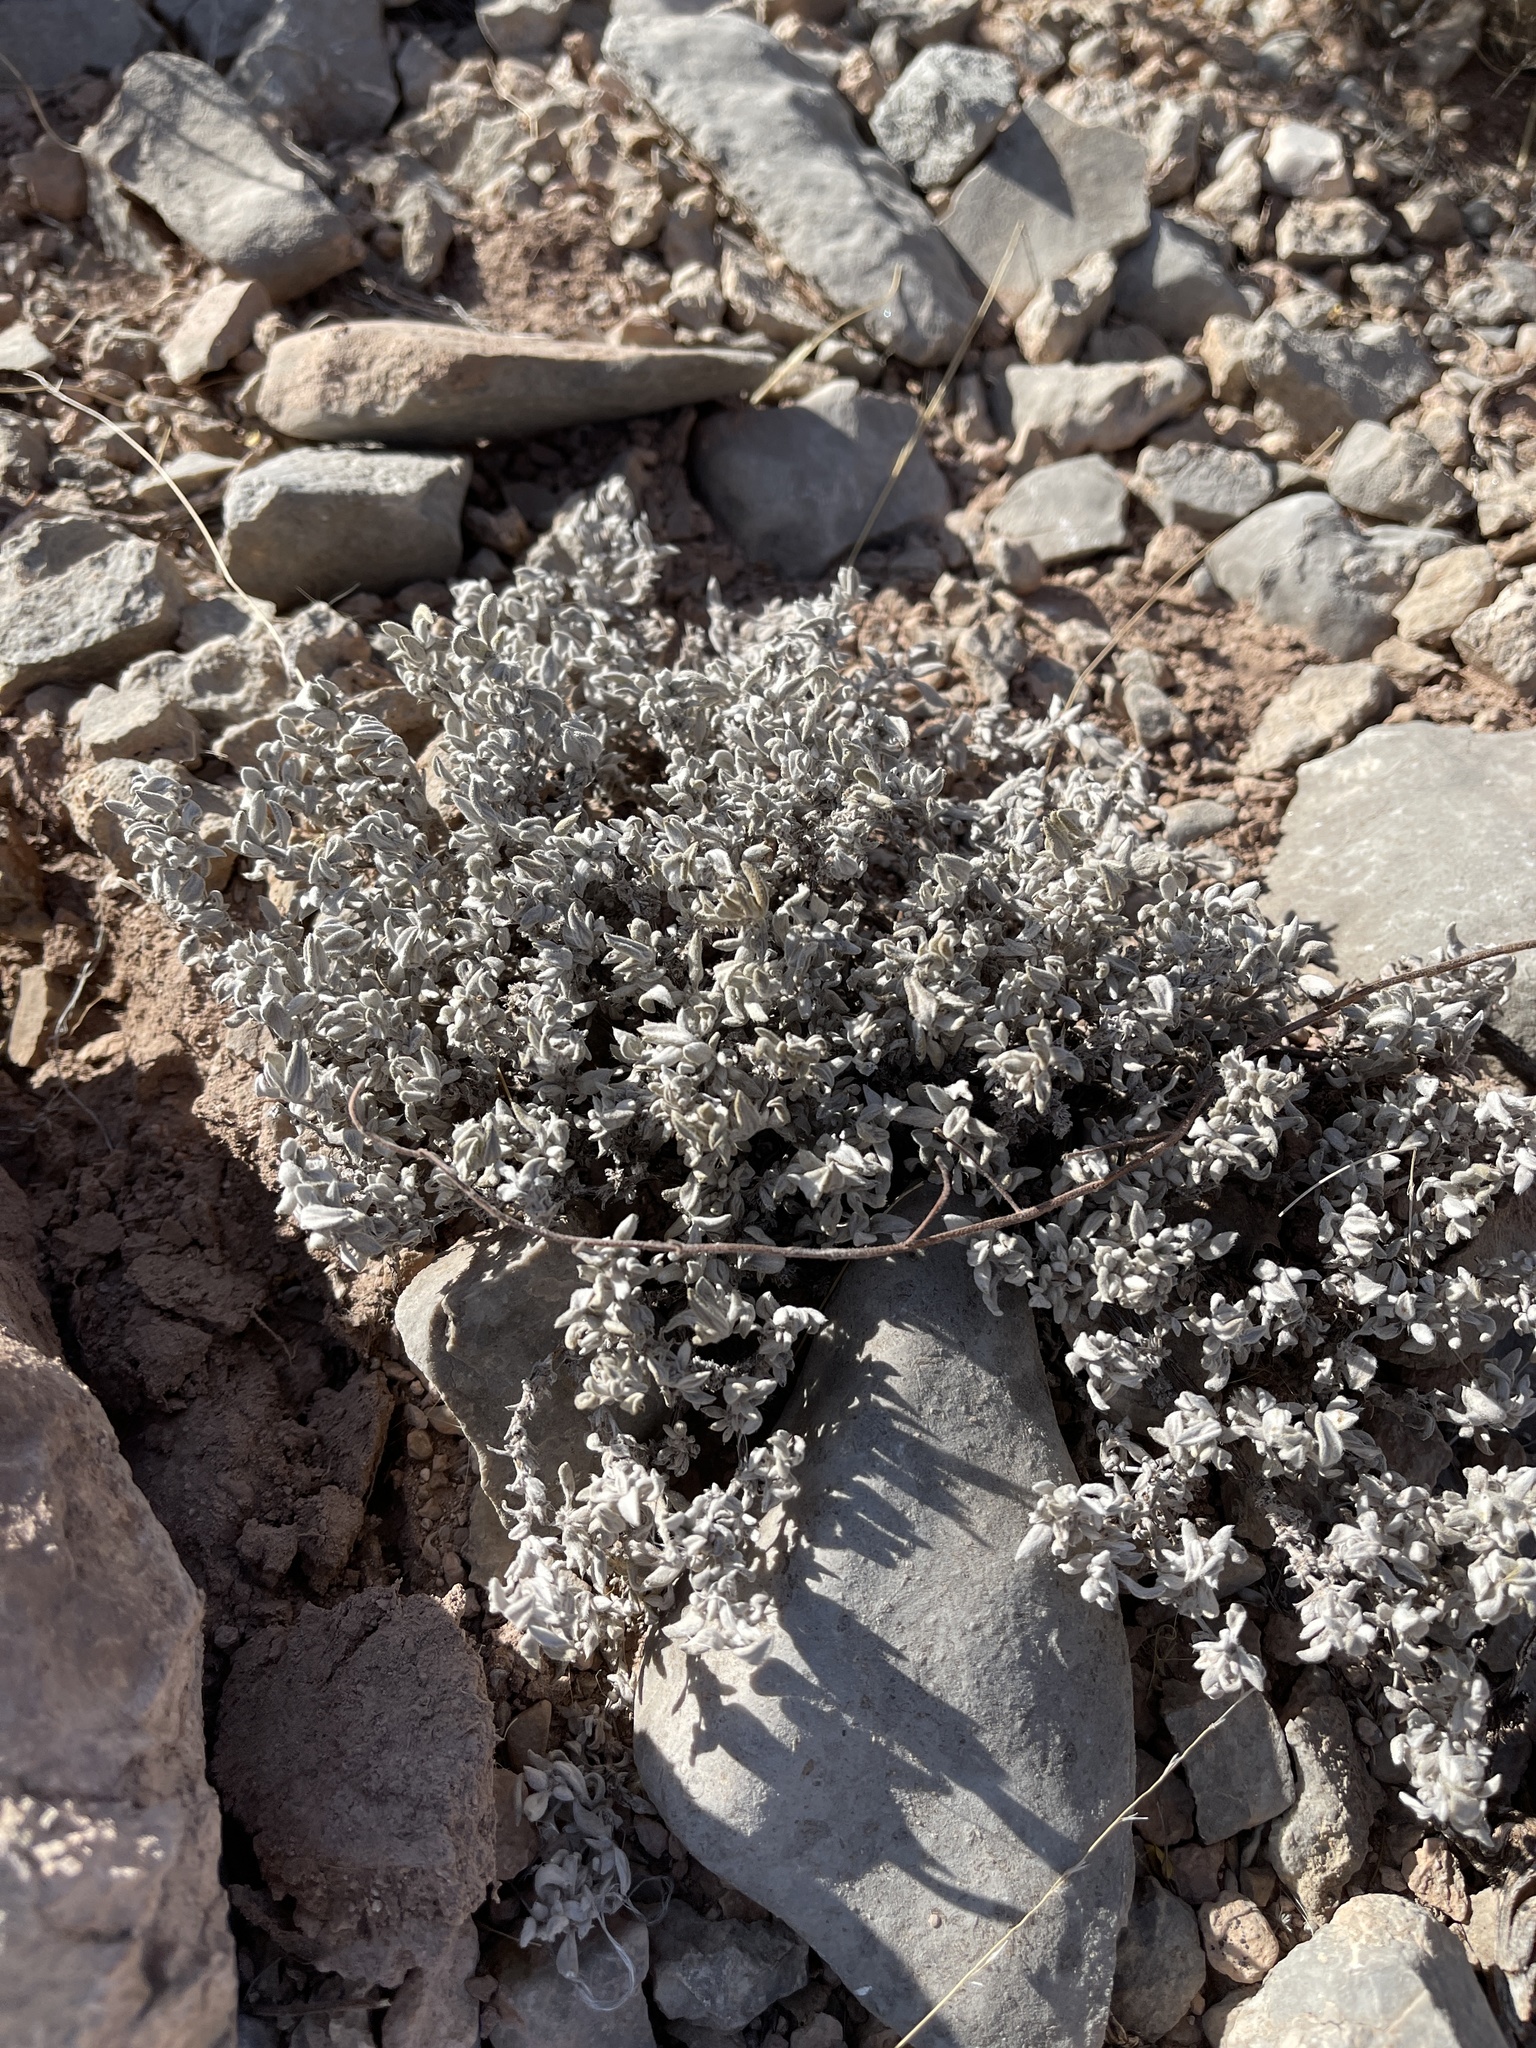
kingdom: Plantae
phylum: Tracheophyta
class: Magnoliopsida
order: Boraginales
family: Ehretiaceae
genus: Tiquilia
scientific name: Tiquilia canescens
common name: Hairy tiquilia
